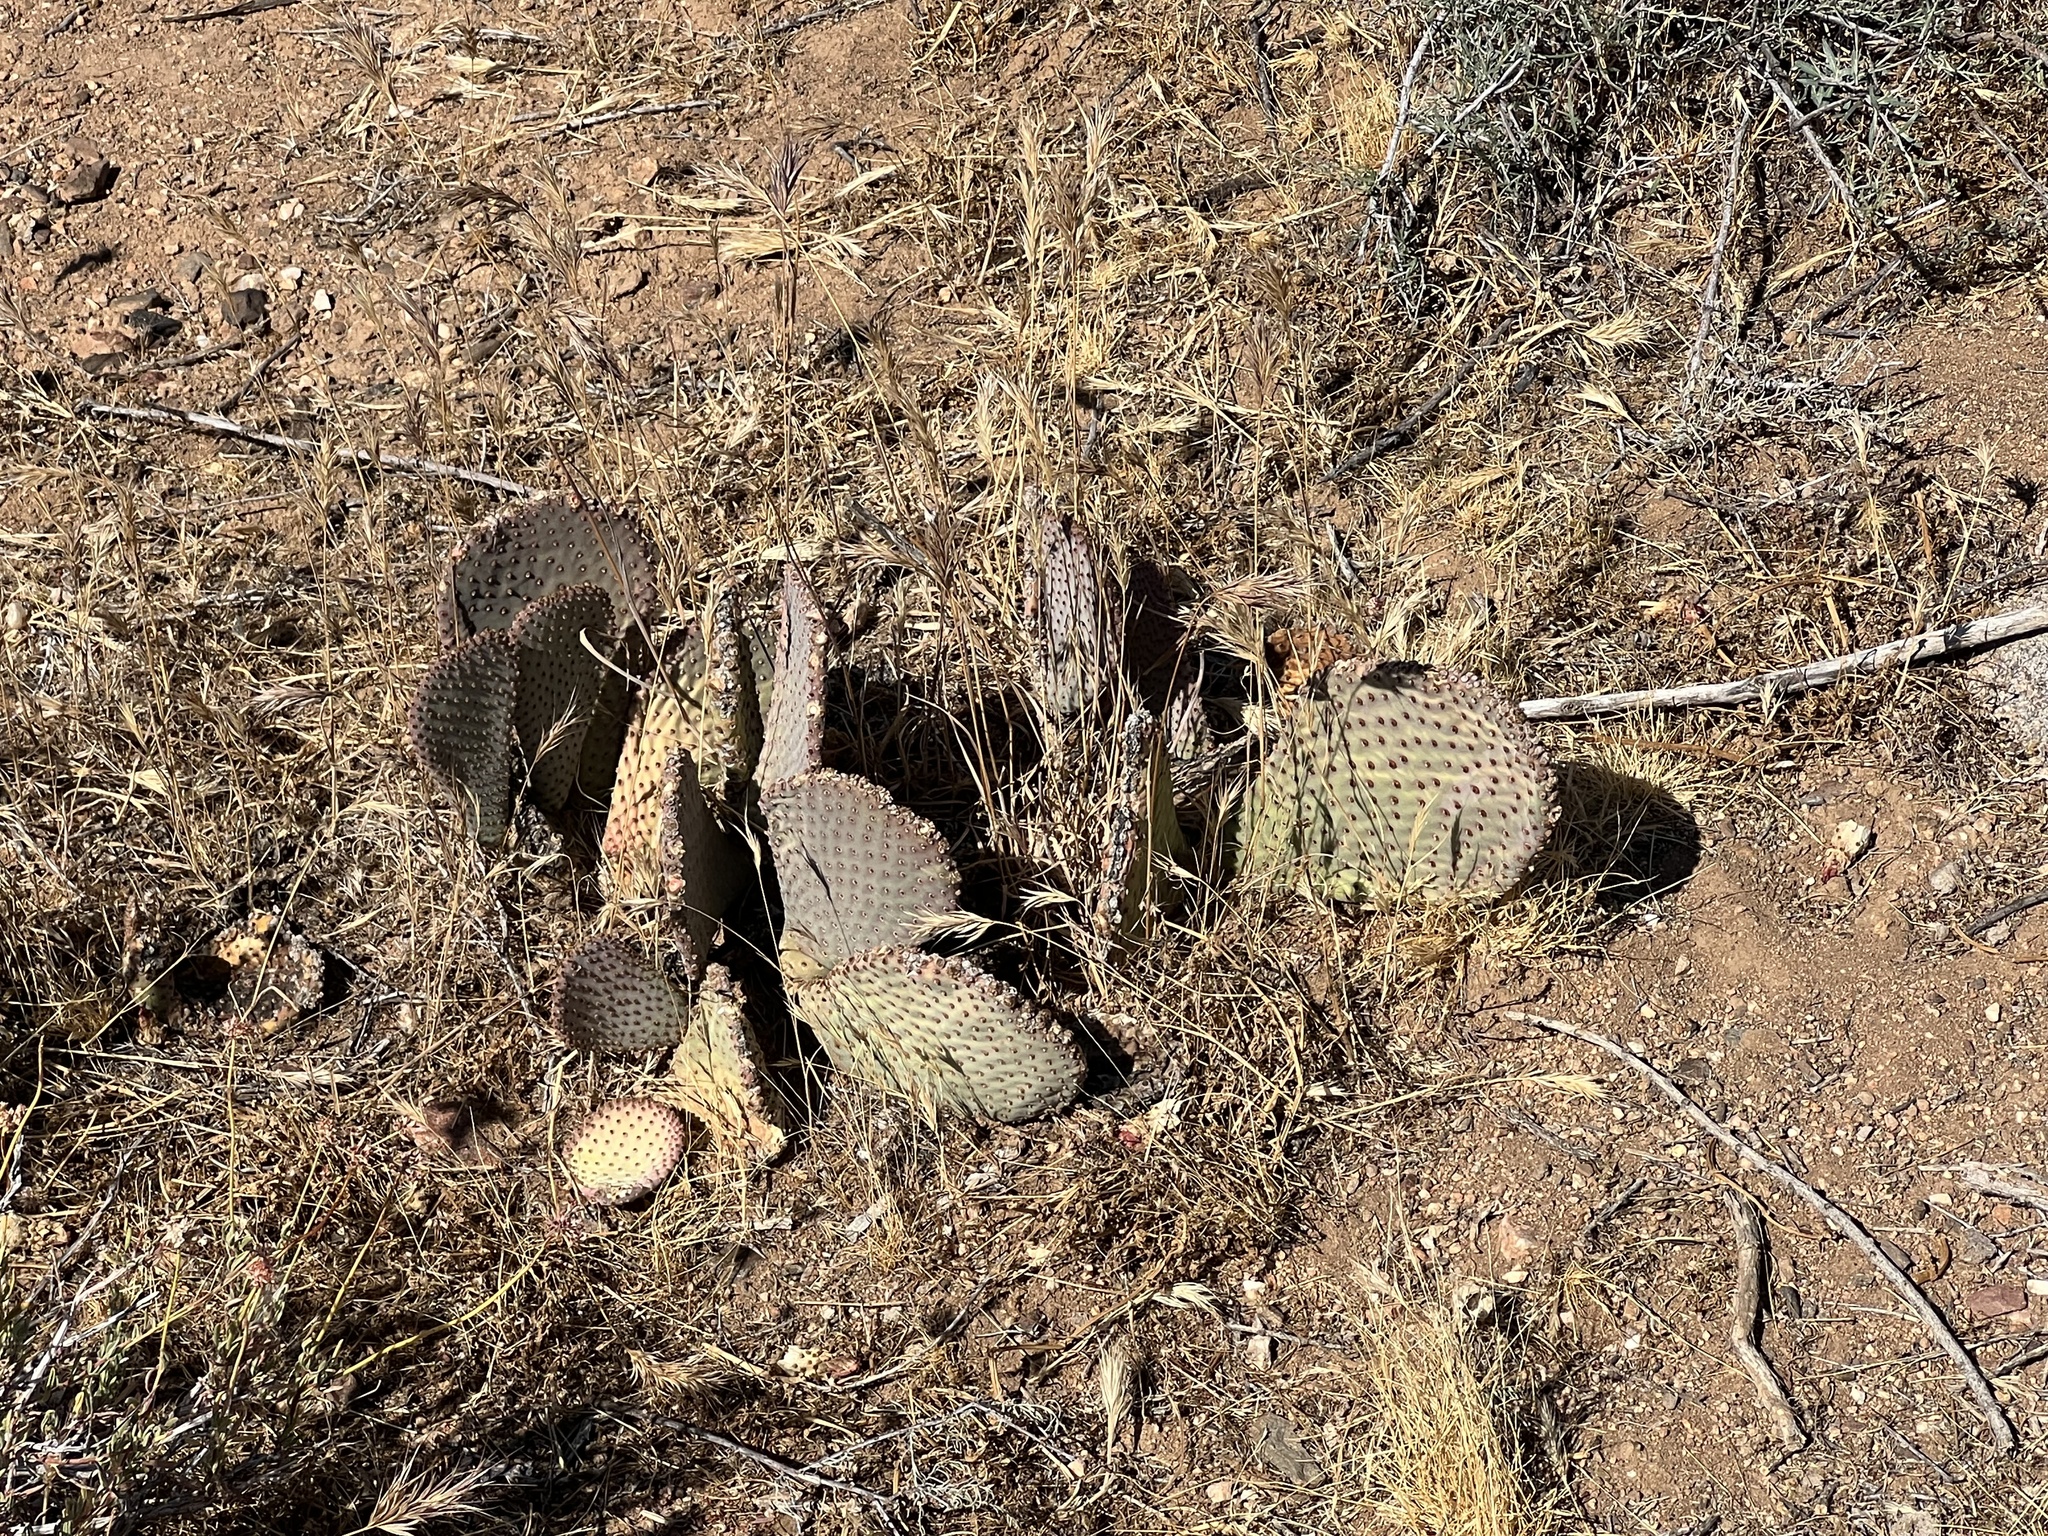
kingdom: Plantae
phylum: Tracheophyta
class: Magnoliopsida
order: Caryophyllales
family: Cactaceae
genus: Opuntia
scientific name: Opuntia basilaris
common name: Beavertail prickly-pear
